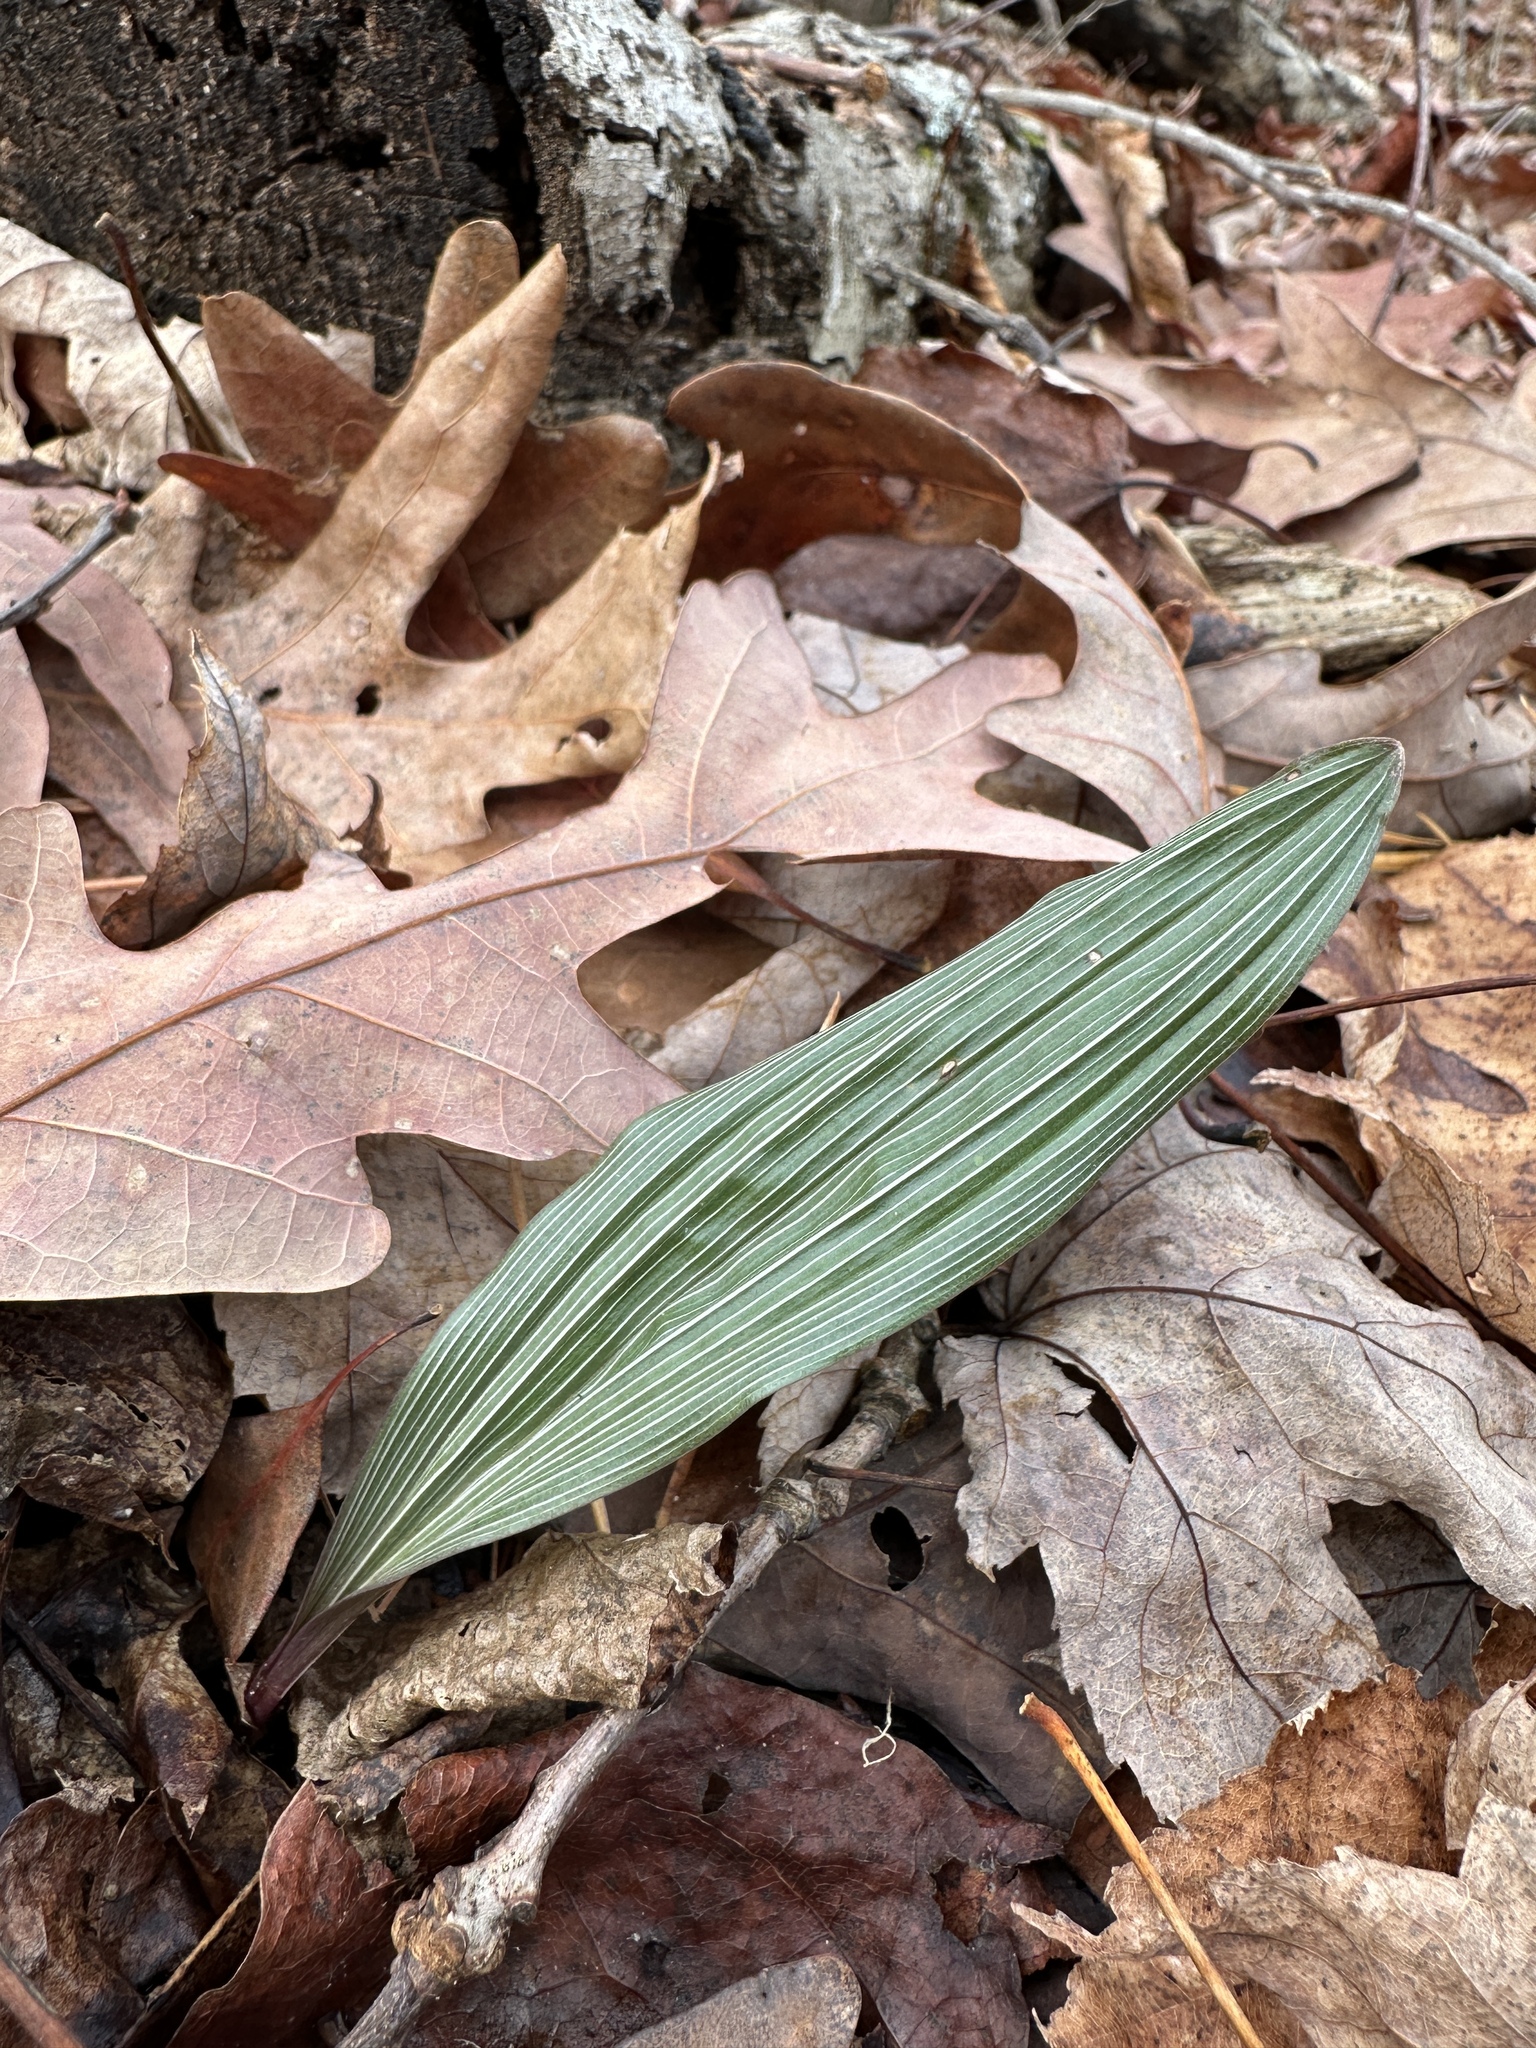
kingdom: Plantae
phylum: Tracheophyta
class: Liliopsida
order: Asparagales
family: Orchidaceae
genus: Aplectrum
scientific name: Aplectrum hyemale
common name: Adam-and-eve
